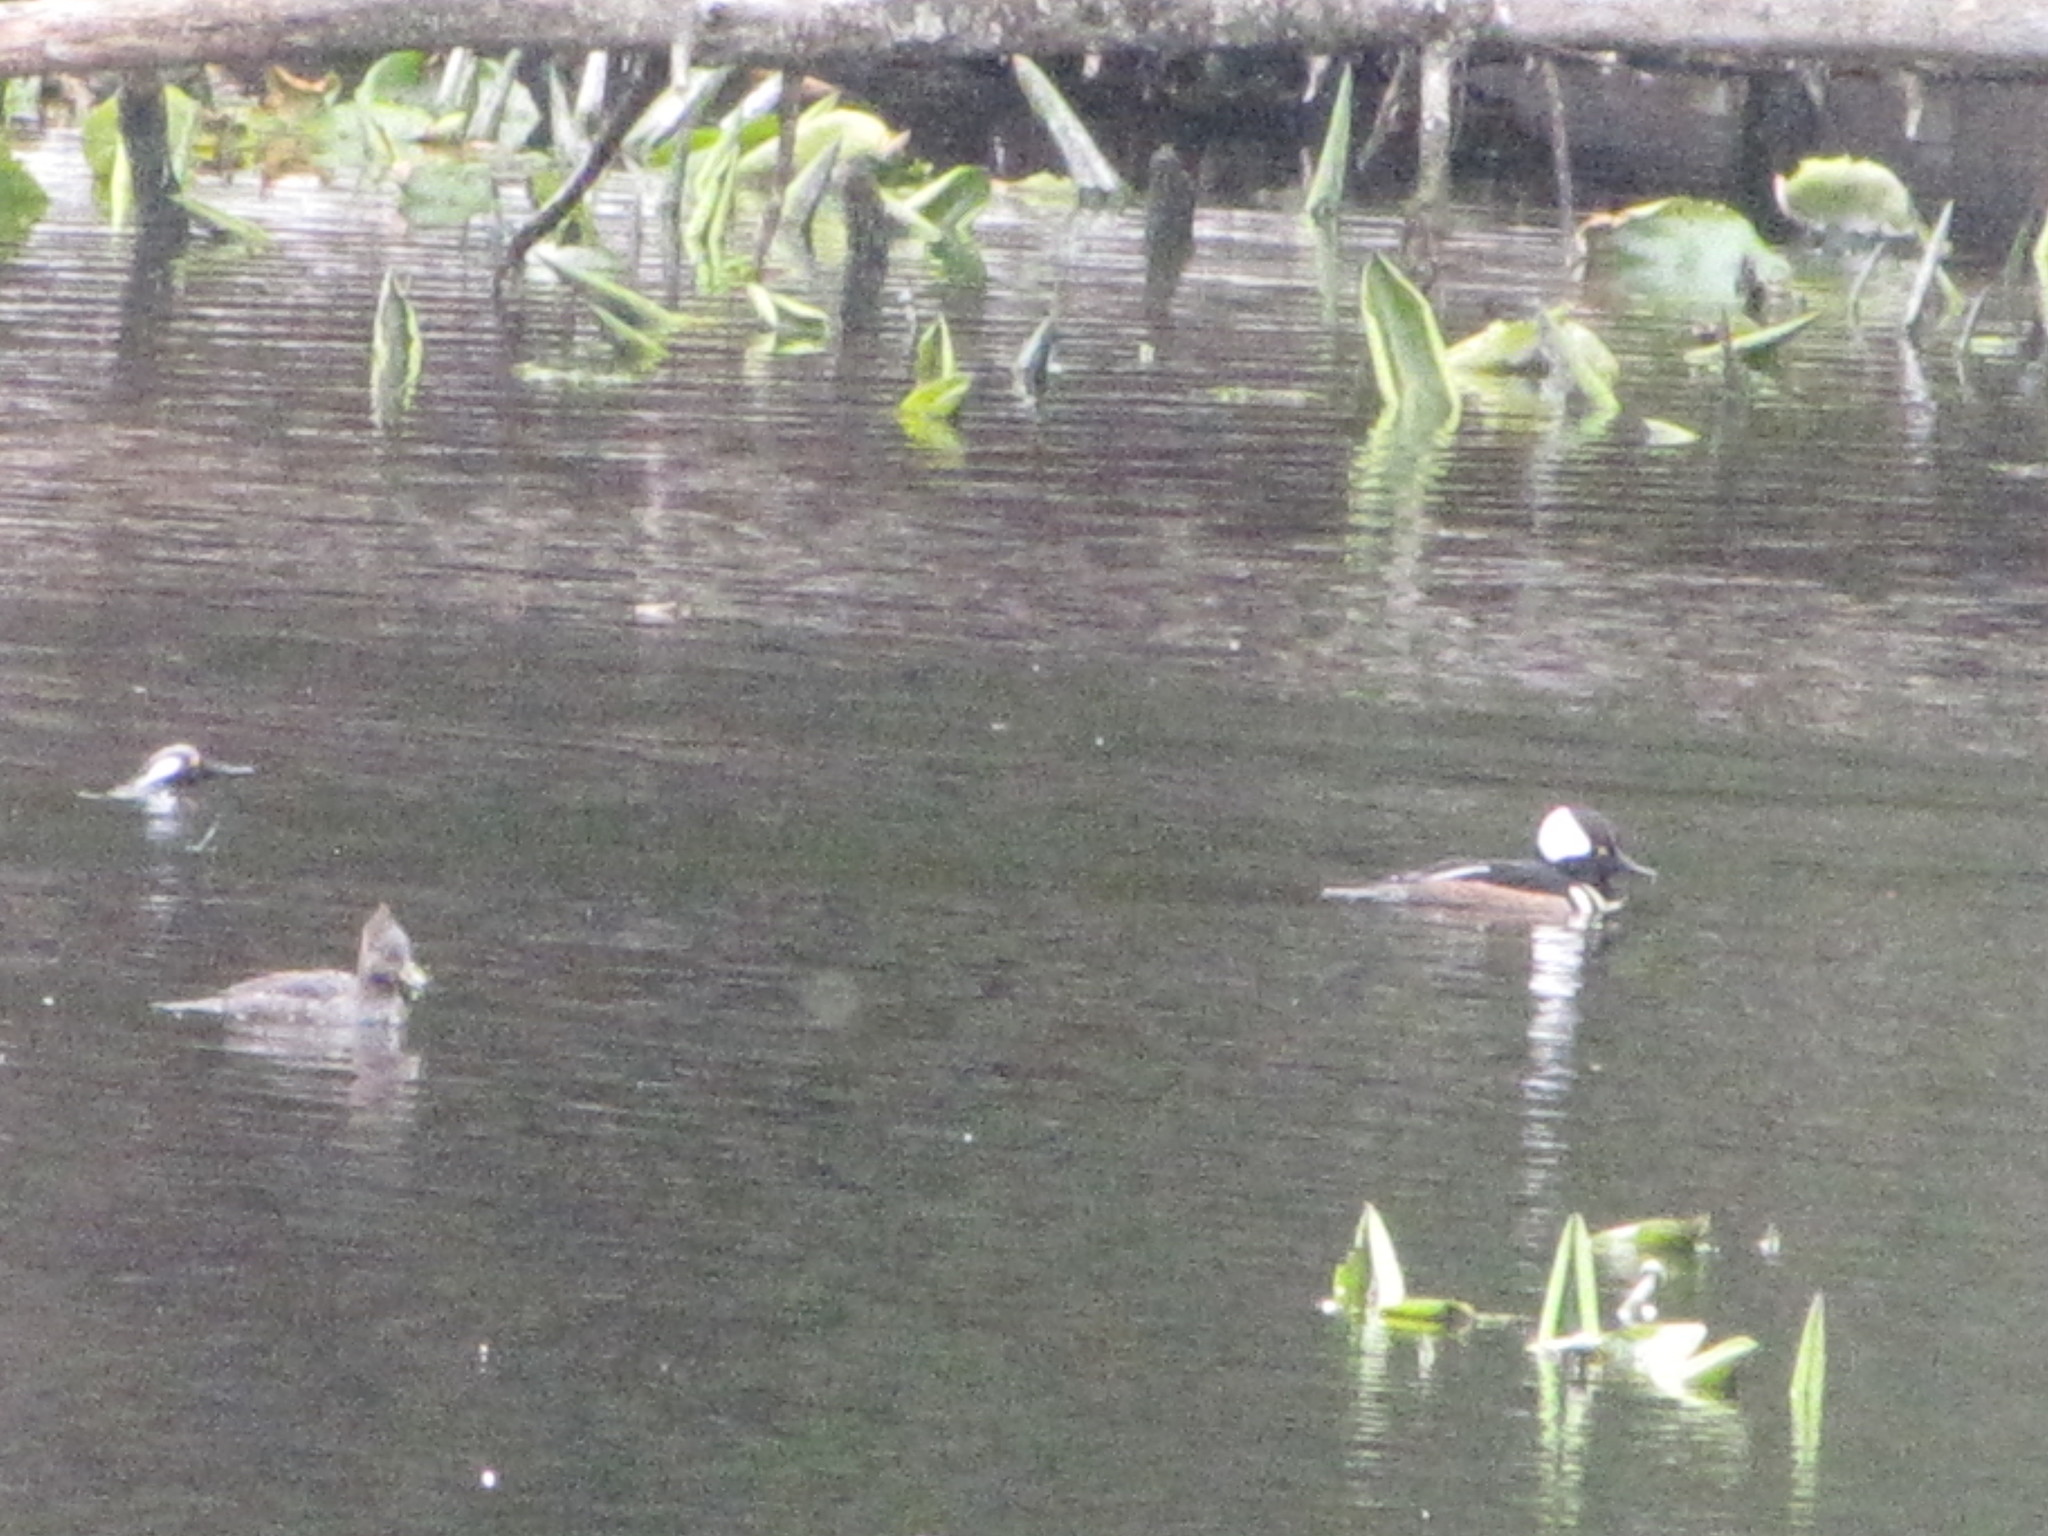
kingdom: Animalia
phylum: Chordata
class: Aves
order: Anseriformes
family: Anatidae
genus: Lophodytes
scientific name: Lophodytes cucullatus
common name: Hooded merganser
